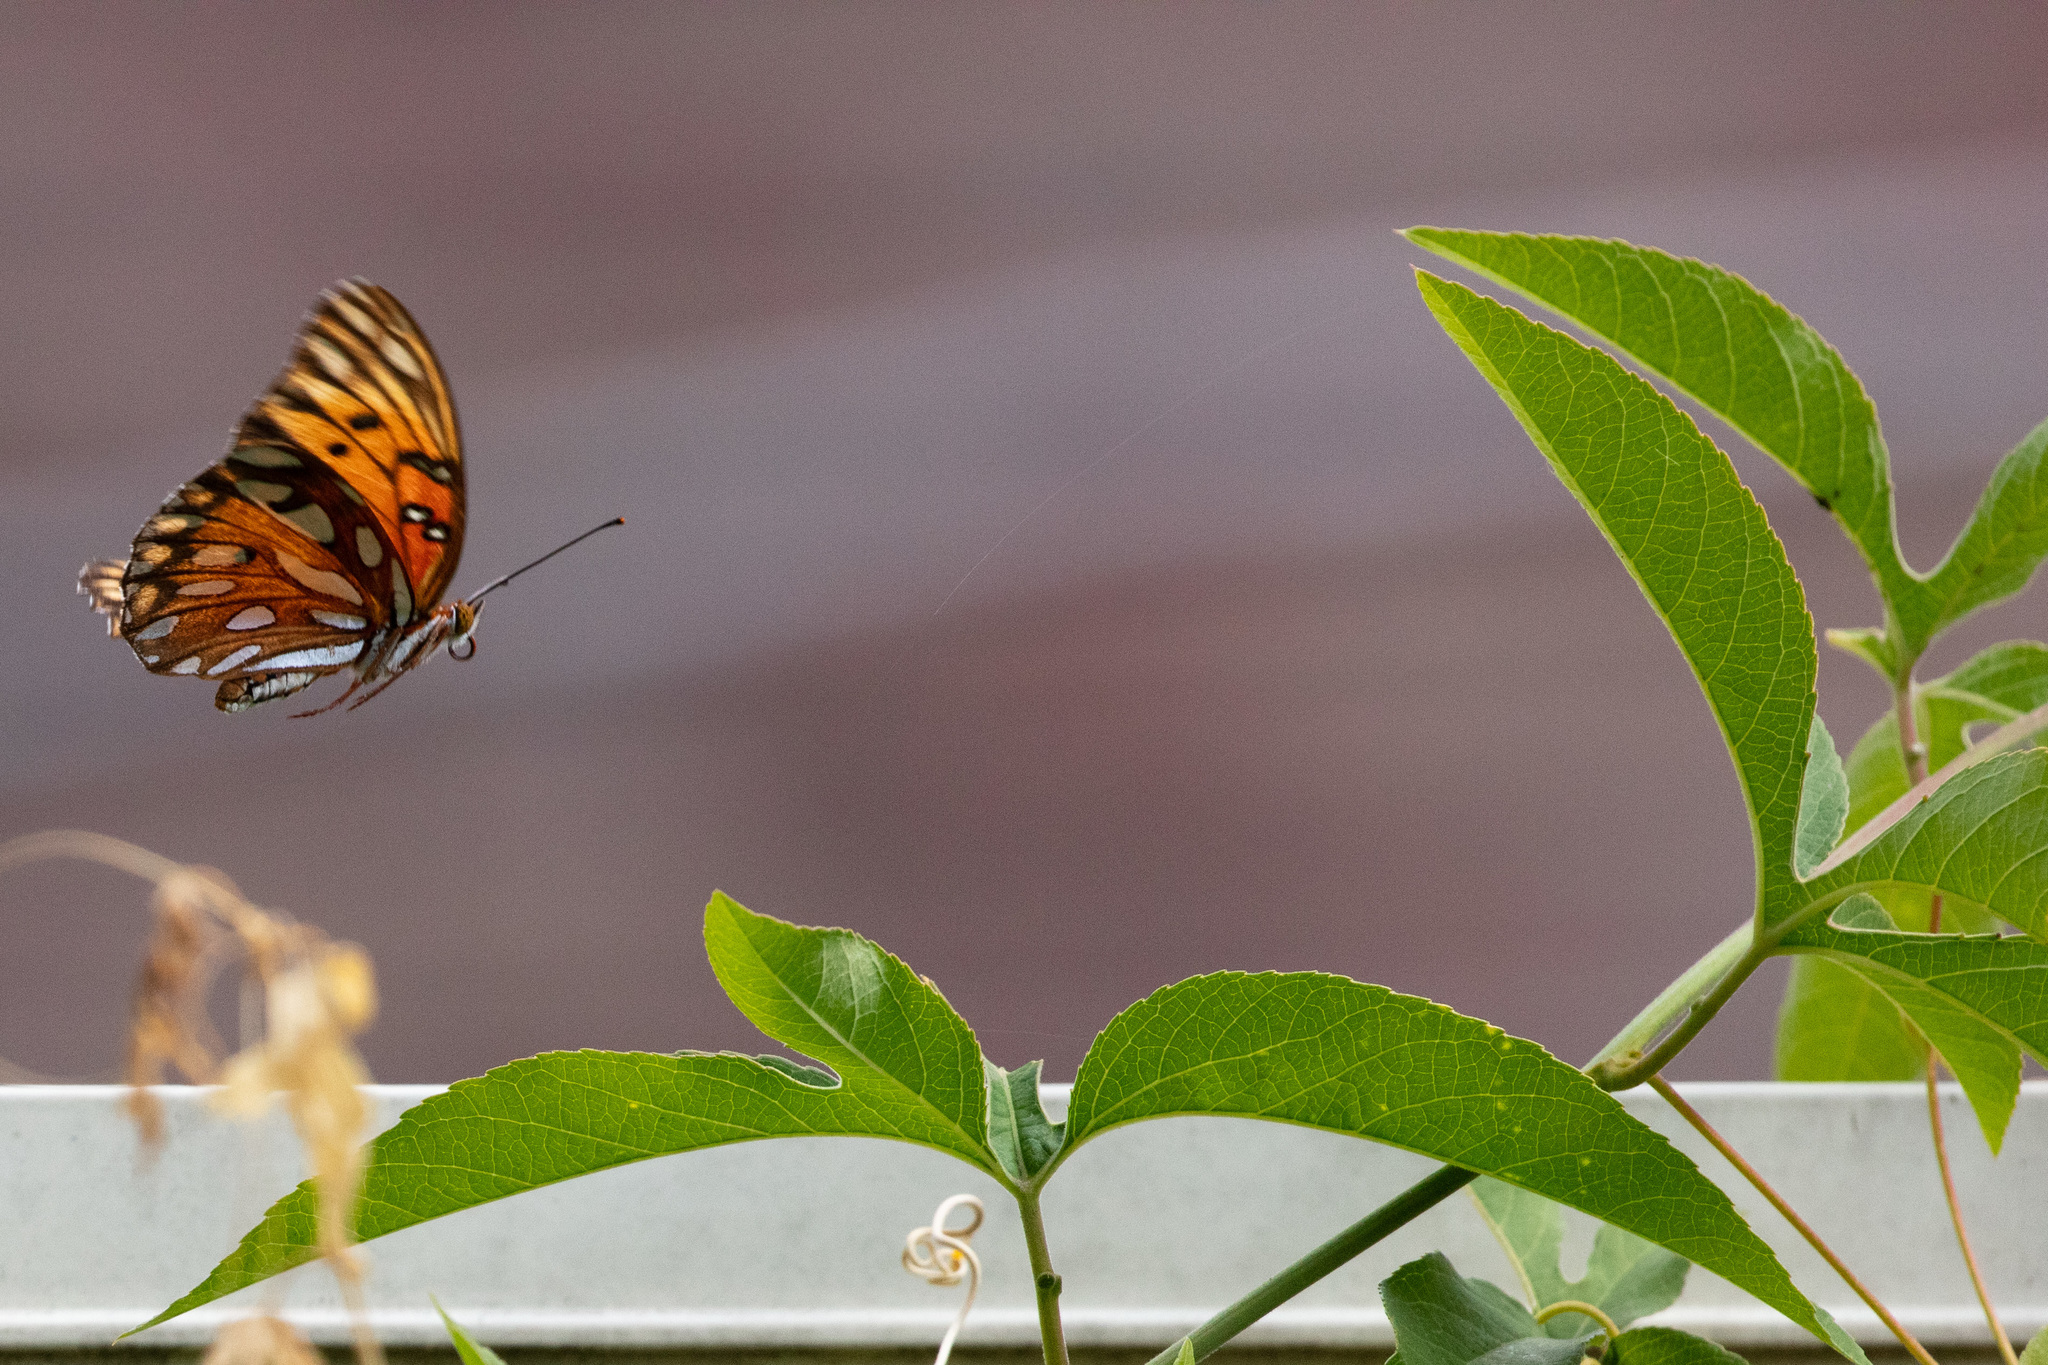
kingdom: Animalia
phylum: Arthropoda
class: Insecta
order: Lepidoptera
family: Nymphalidae
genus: Dione
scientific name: Dione vanillae
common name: Gulf fritillary
